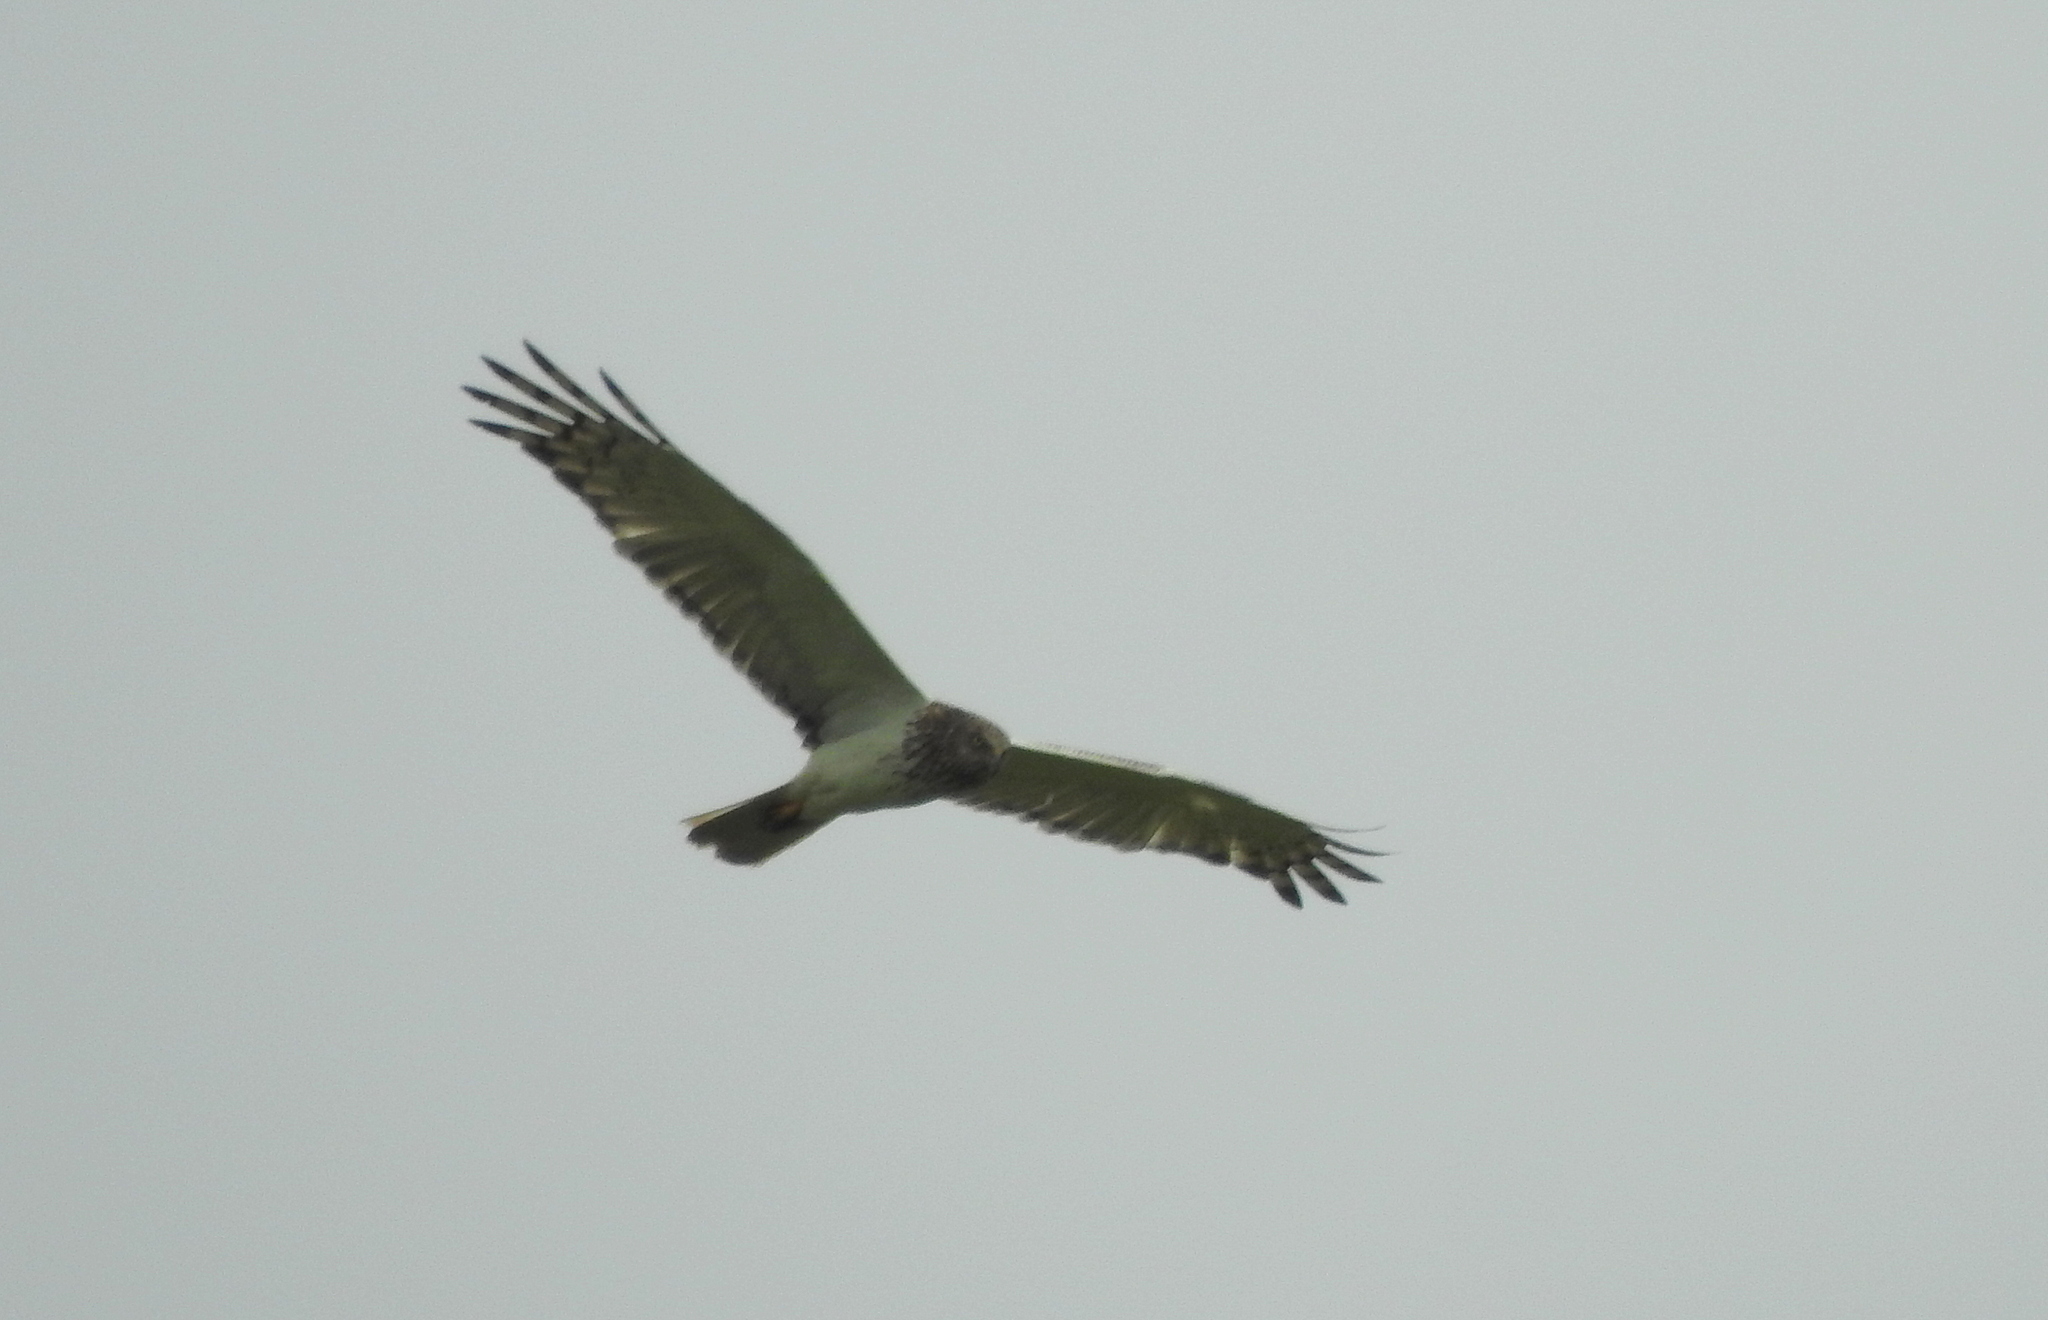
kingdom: Animalia
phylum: Chordata
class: Aves
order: Accipitriformes
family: Accipitridae
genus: Circus
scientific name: Circus spilonotus
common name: Eastern marsh-harrier
